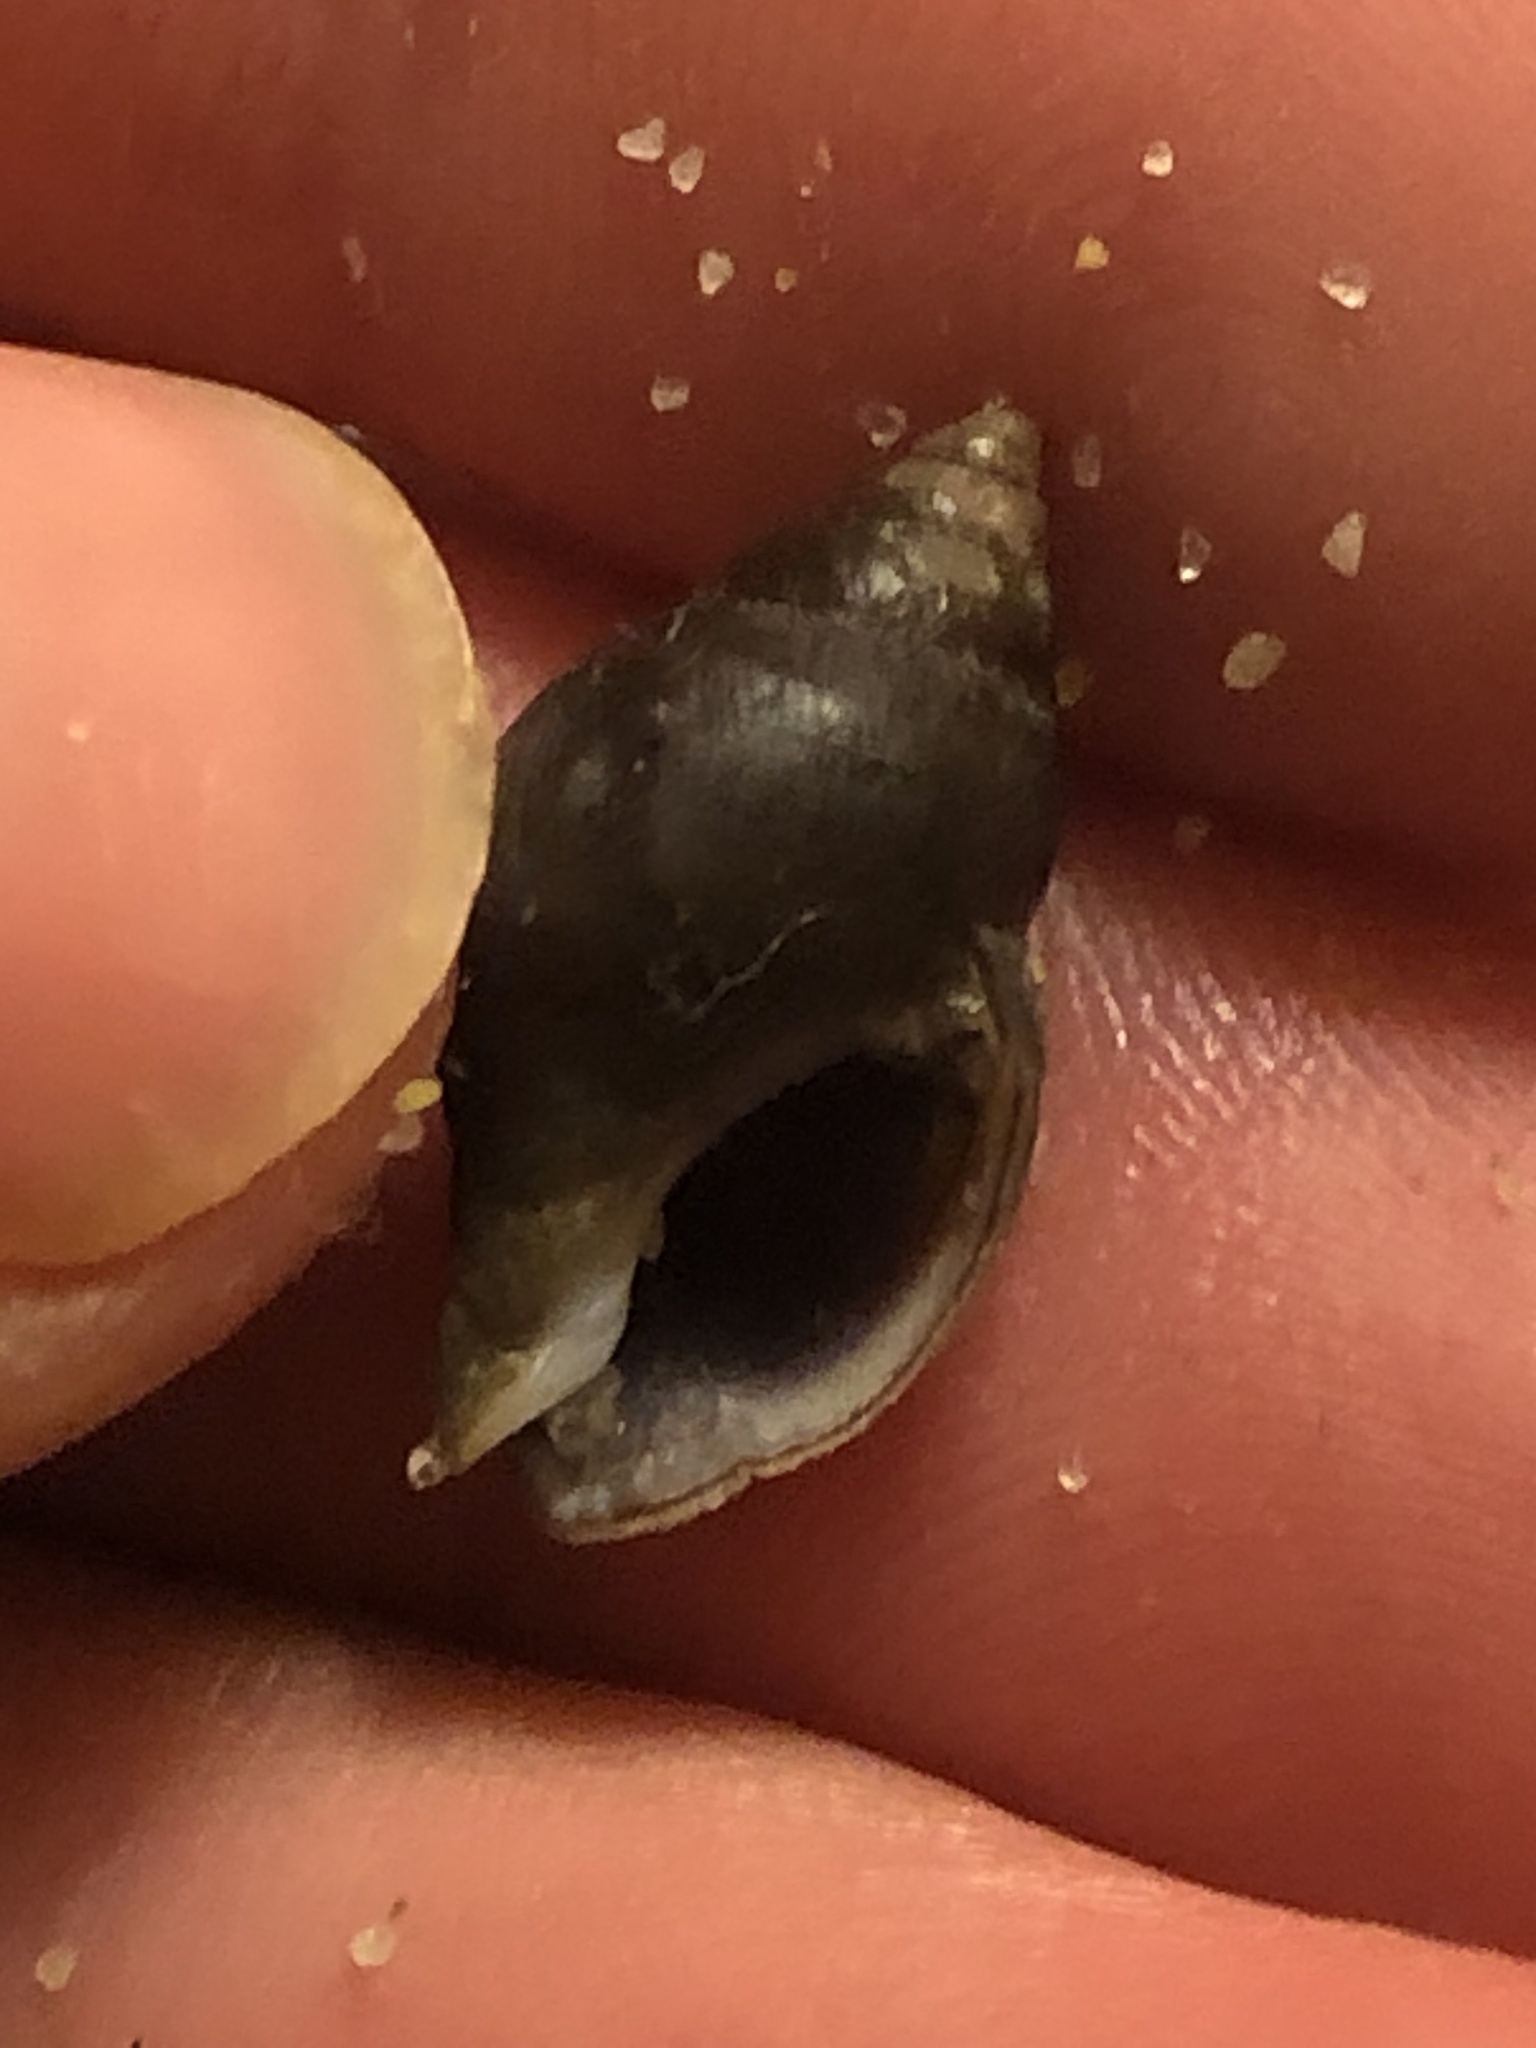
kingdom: Animalia
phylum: Mollusca
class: Gastropoda
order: Neogastropoda
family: Pseudolividae
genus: Macron
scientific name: Macron lividus
